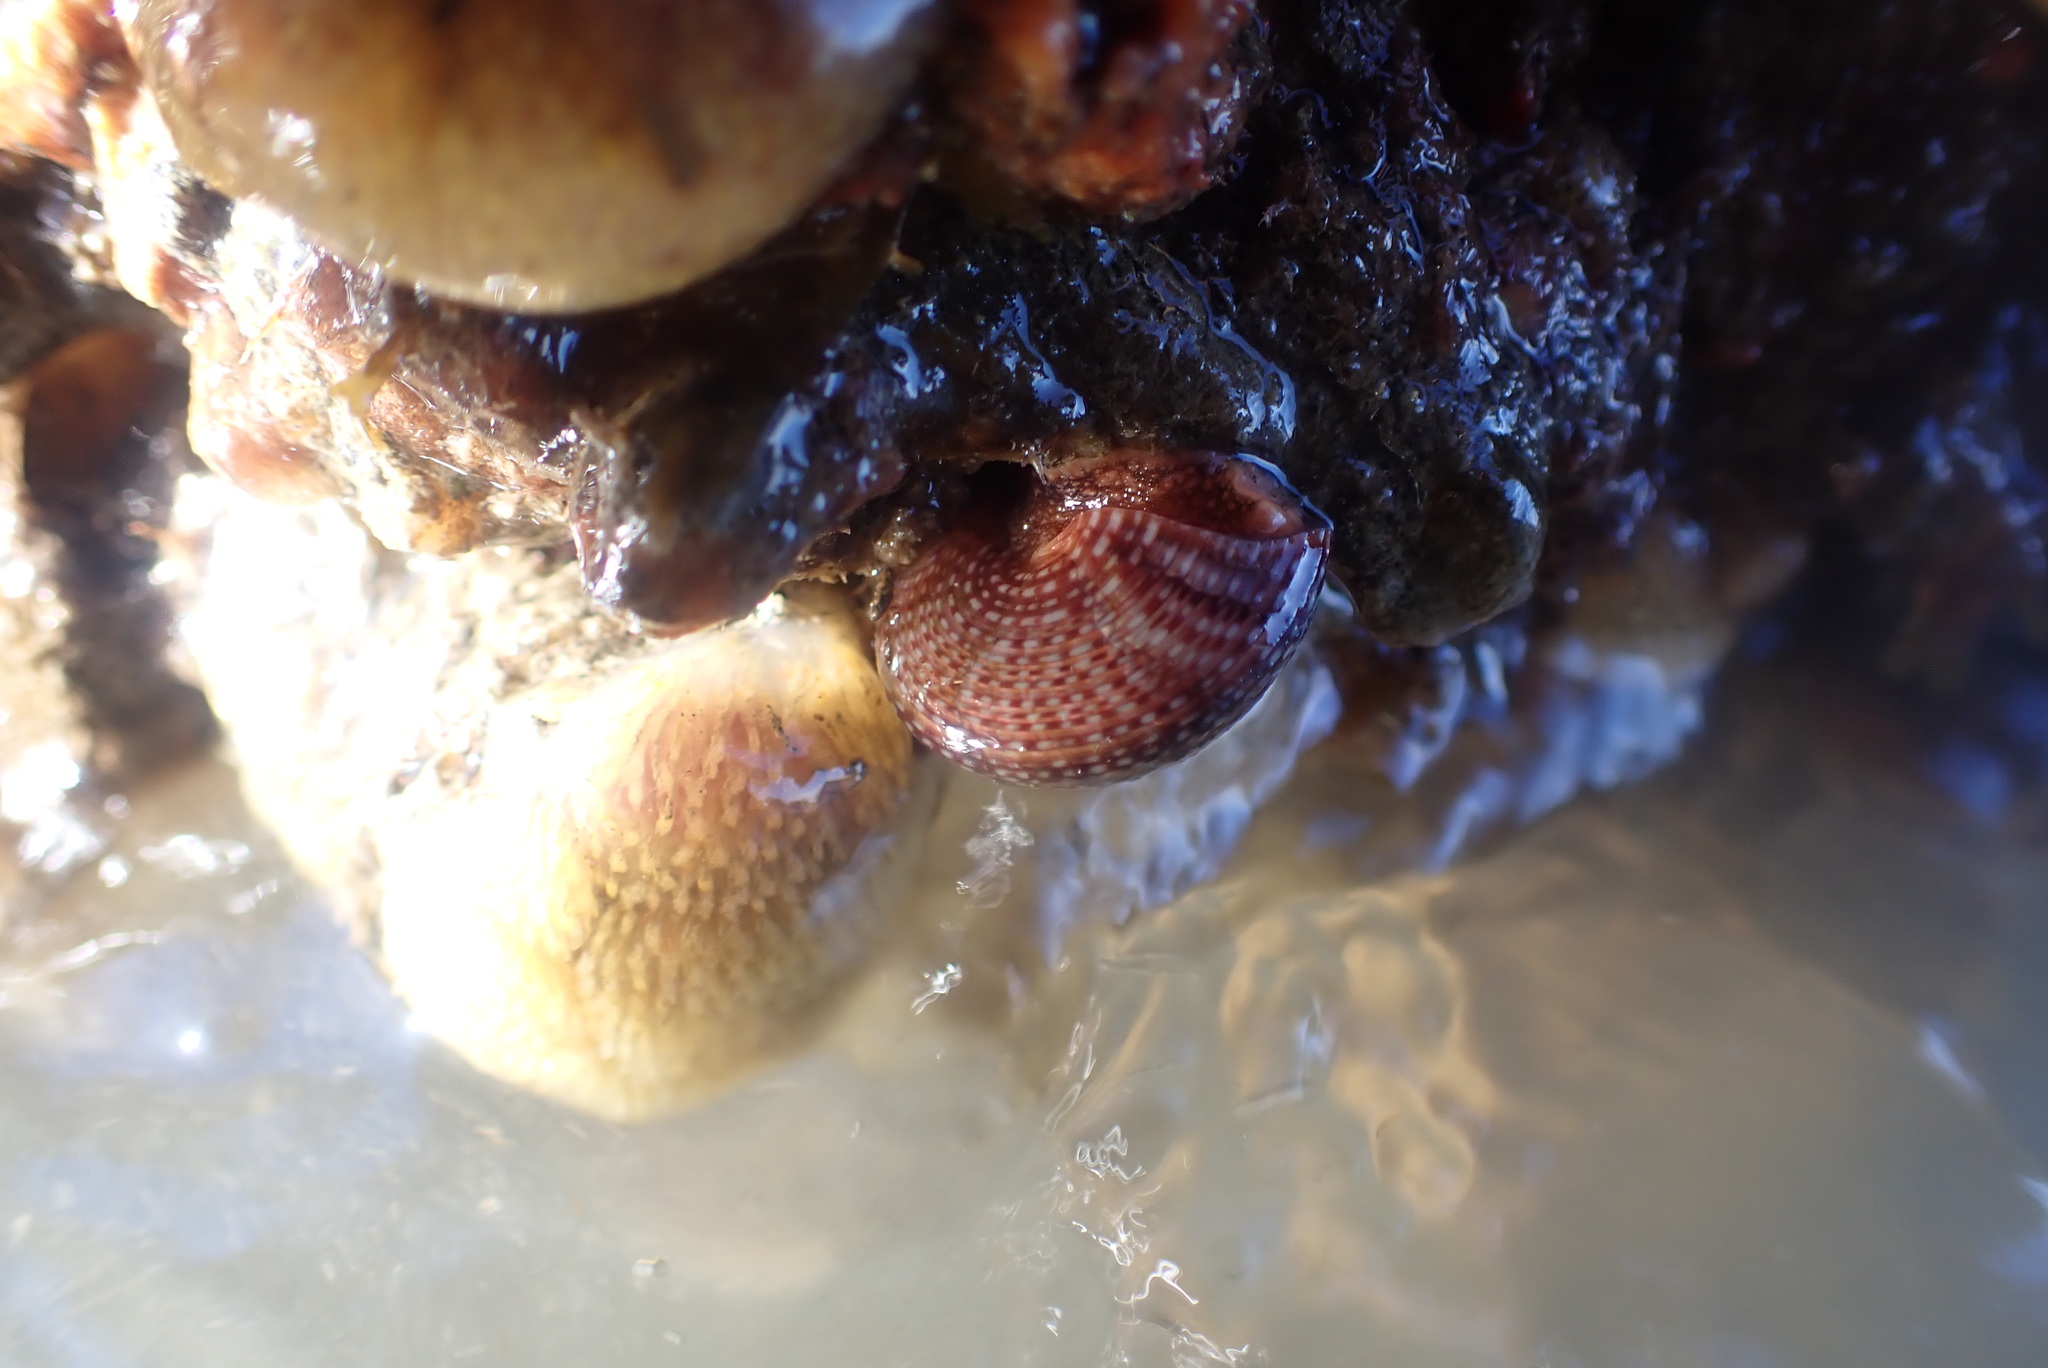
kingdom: Animalia
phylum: Mollusca
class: Gastropoda
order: Trochida
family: Calliostomatidae
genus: Maurea
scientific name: Maurea punctulata
